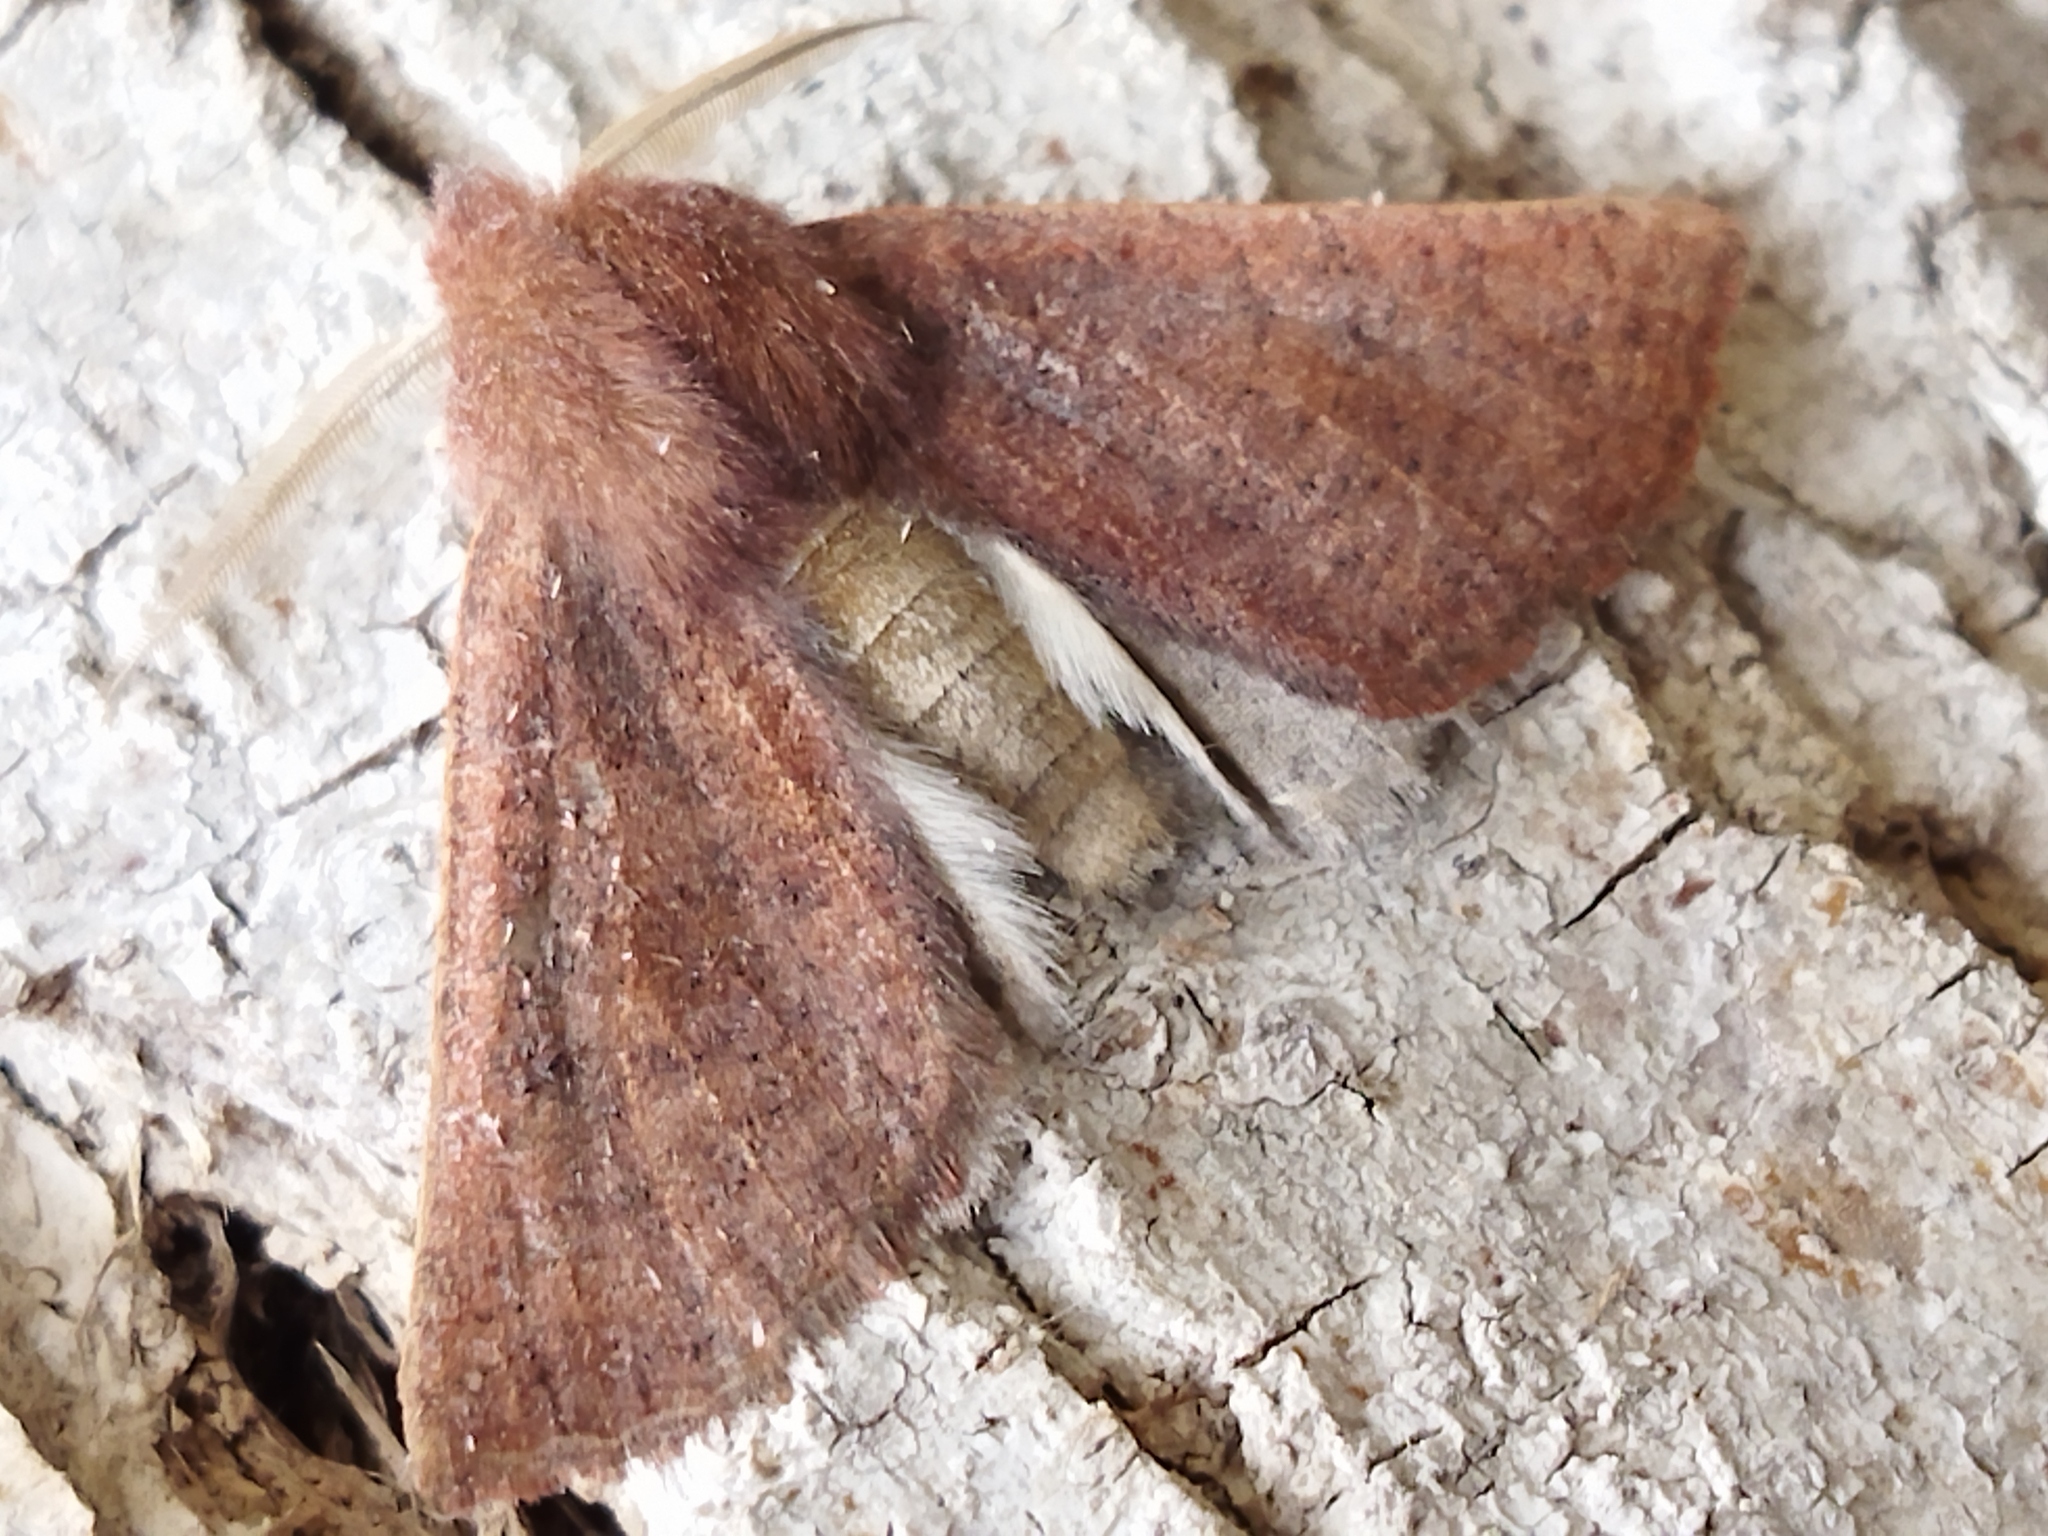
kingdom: Animalia
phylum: Arthropoda
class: Insecta
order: Lepidoptera
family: Geometridae
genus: Dasycorsa
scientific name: Dasycorsa modesta
